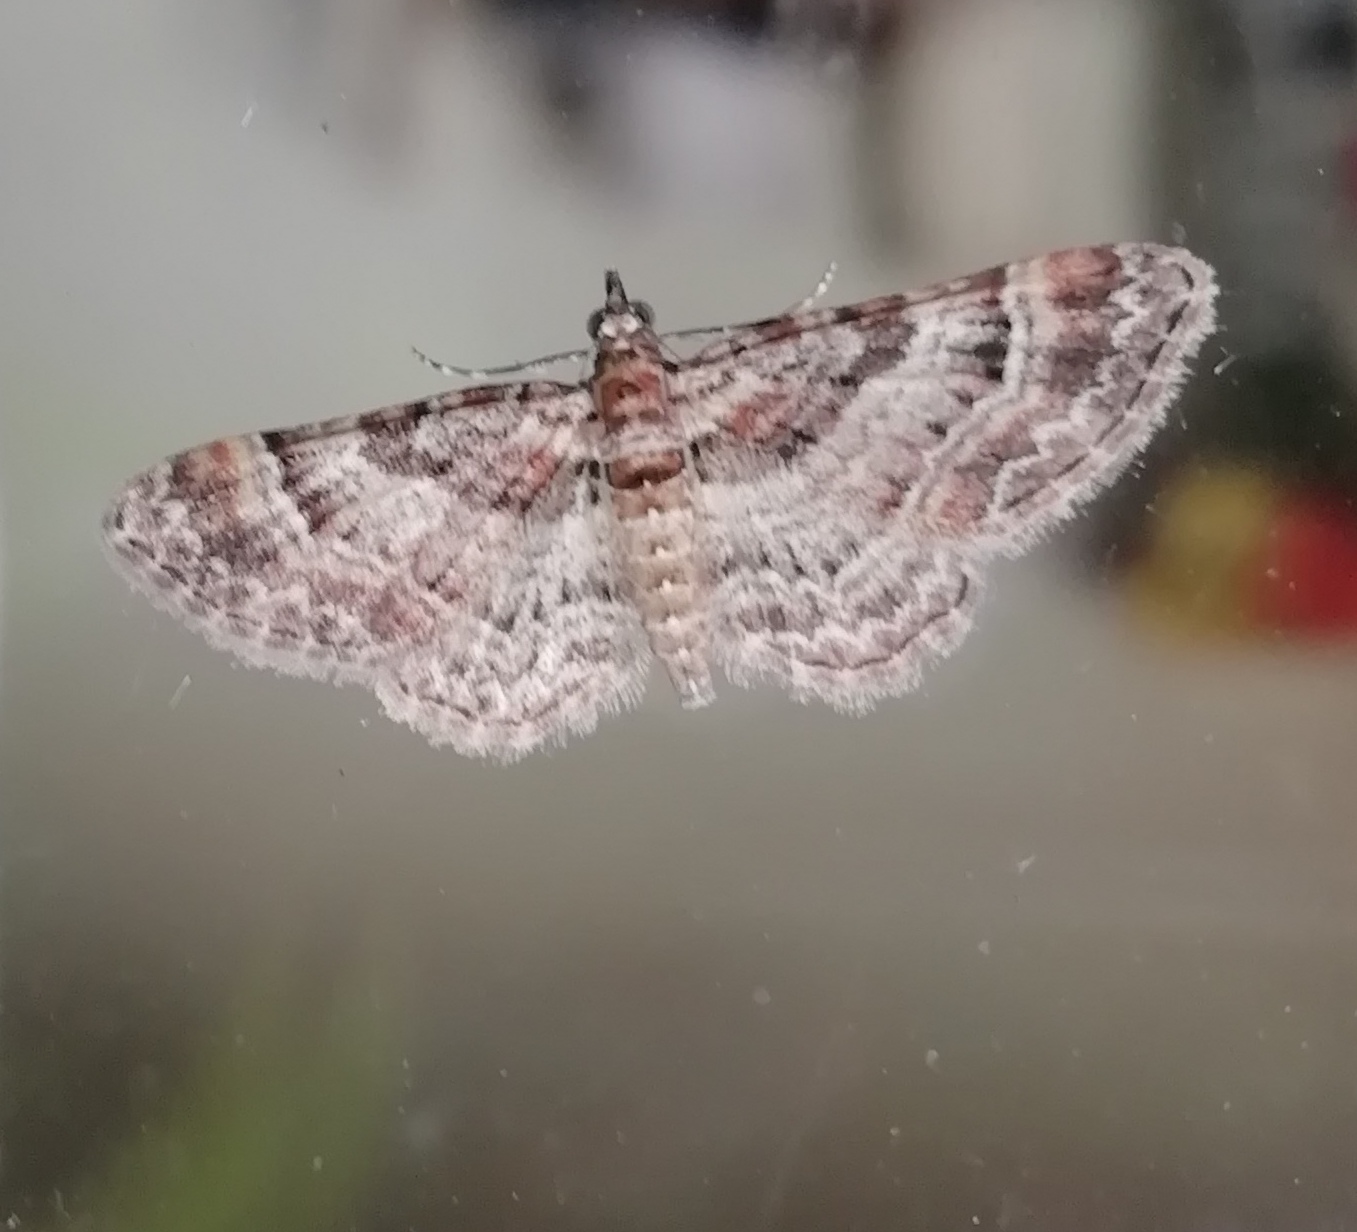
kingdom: Animalia
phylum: Arthropoda
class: Insecta
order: Lepidoptera
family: Geometridae
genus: Gymnoscelis
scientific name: Gymnoscelis rufifasciata
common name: Double-striped pug
